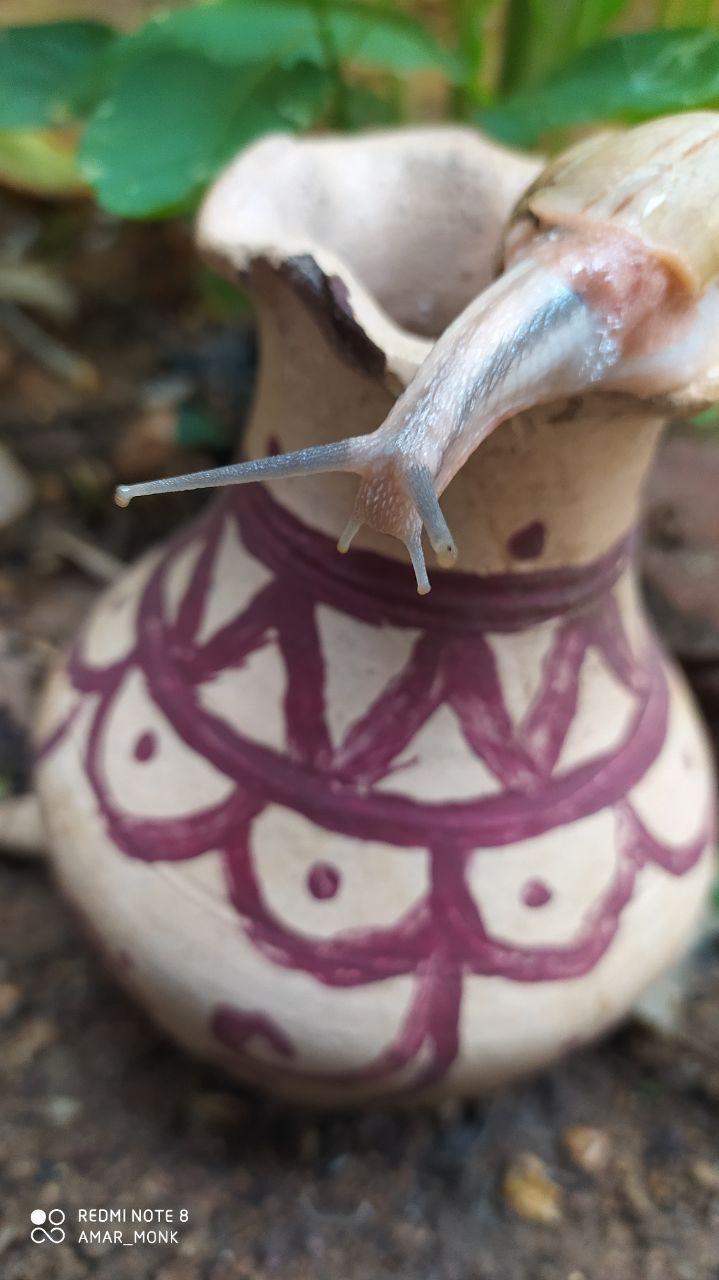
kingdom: Animalia
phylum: Mollusca
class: Gastropoda
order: Stylommatophora
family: Ariophantidae
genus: Ariophanta
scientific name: Ariophanta exilis
